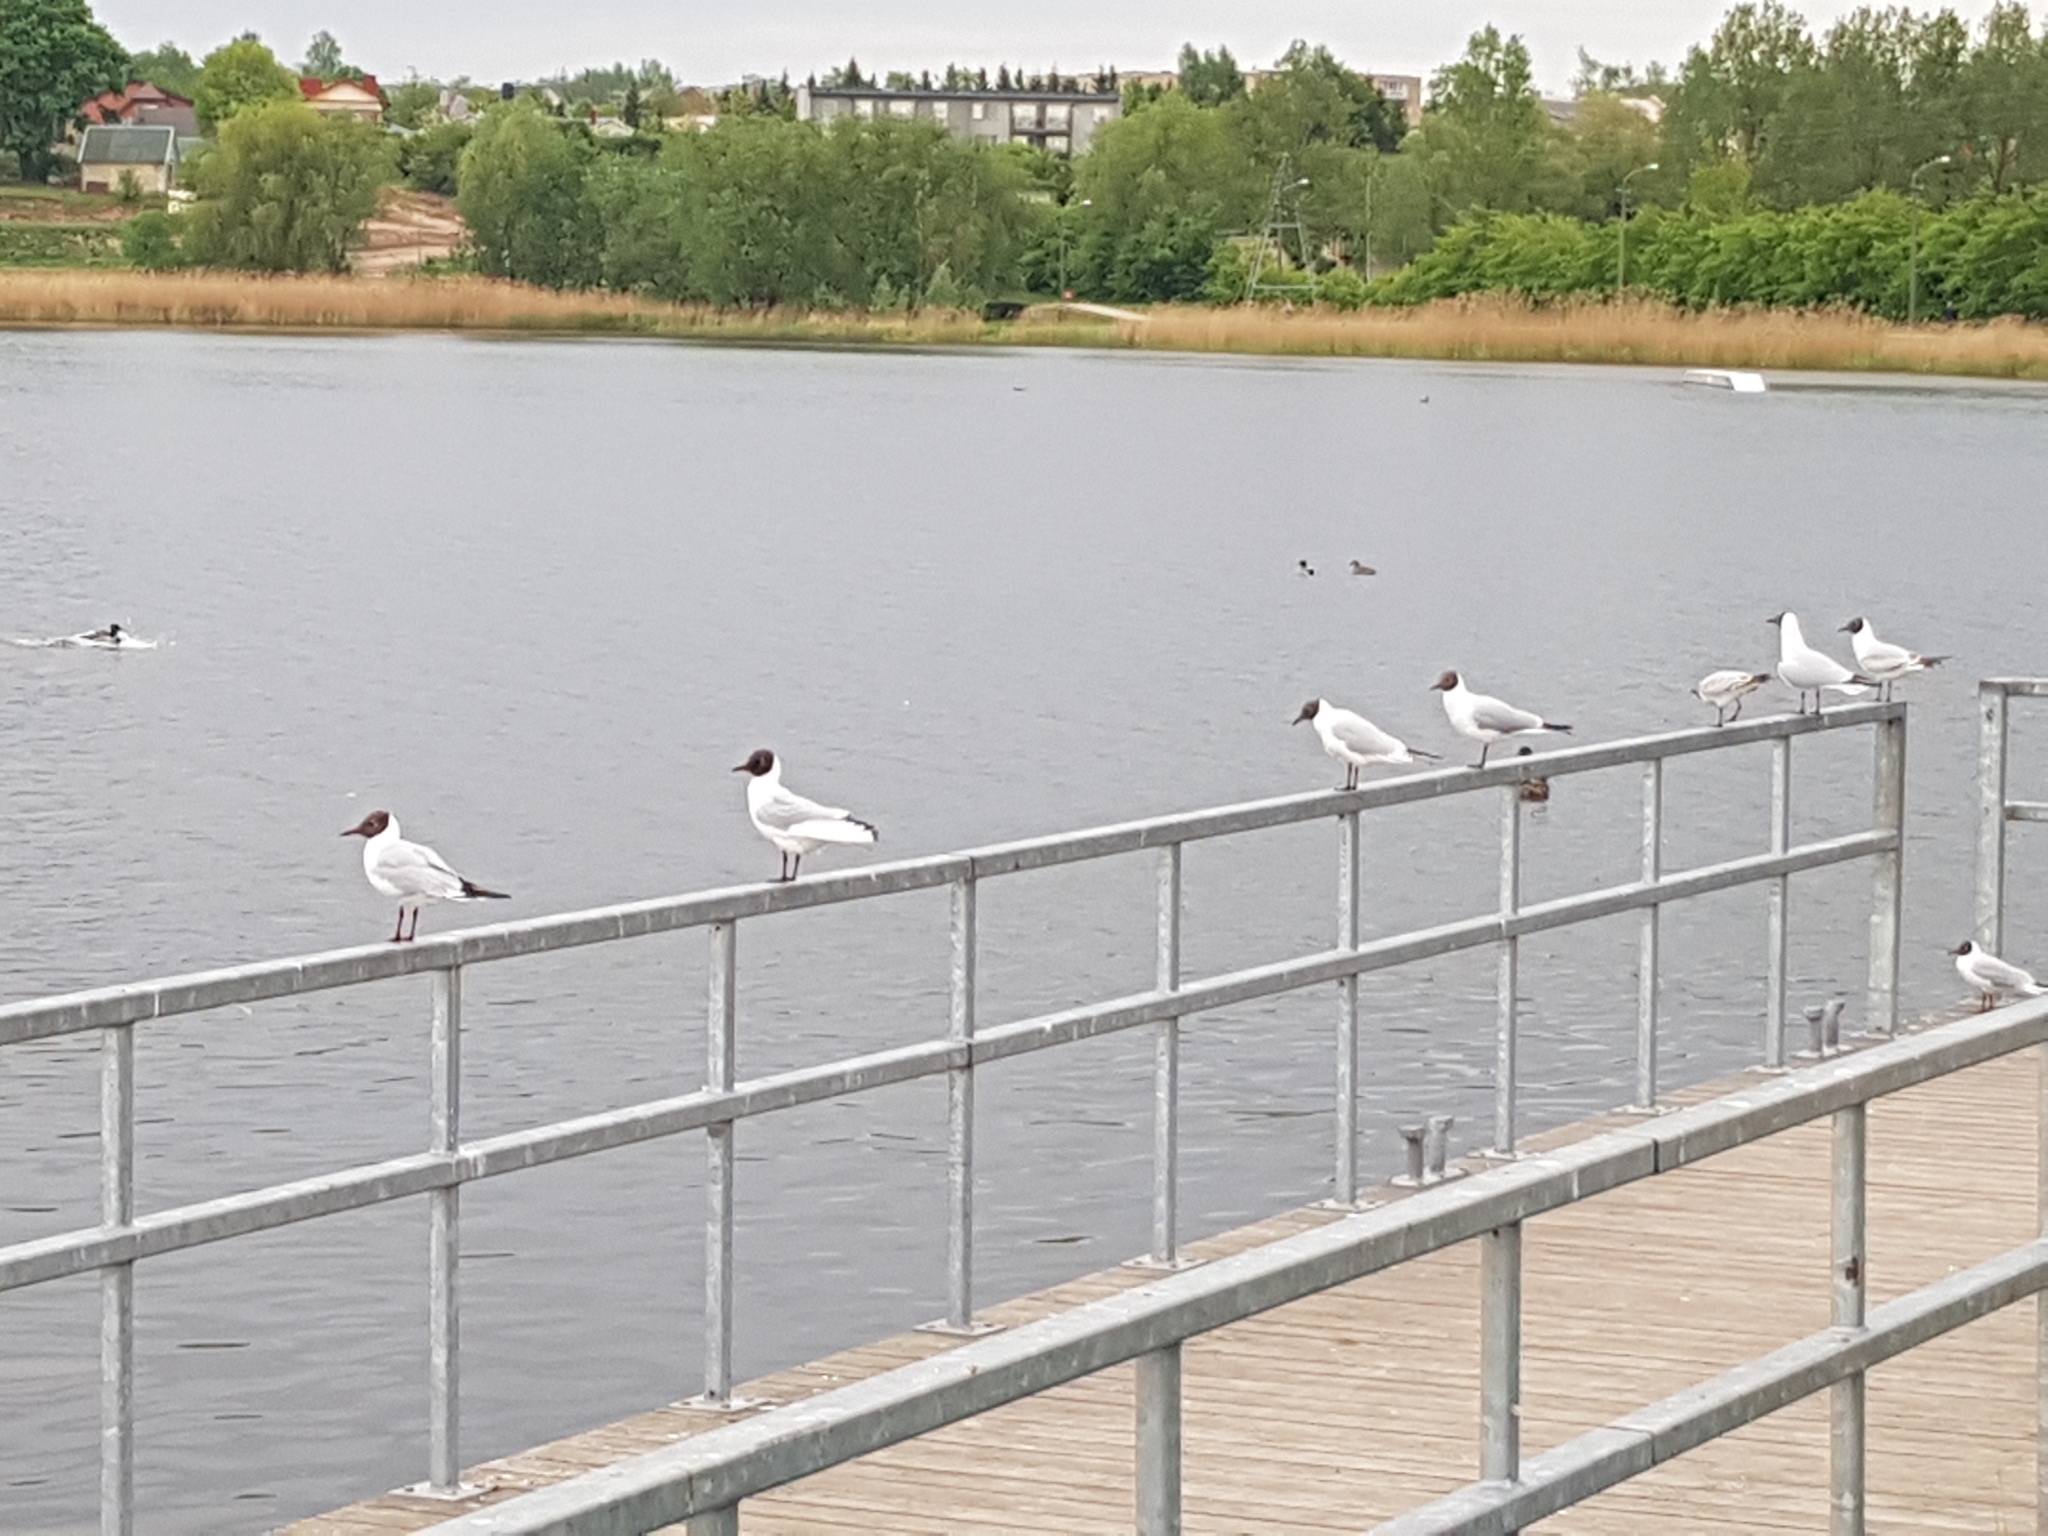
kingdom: Animalia
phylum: Chordata
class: Aves
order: Charadriiformes
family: Laridae
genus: Chroicocephalus
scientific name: Chroicocephalus ridibundus
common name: Black-headed gull
